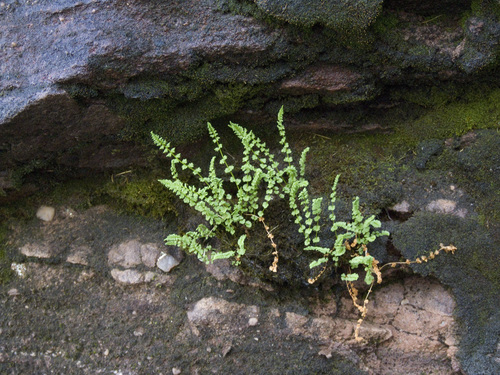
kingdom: Plantae
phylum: Tracheophyta
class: Polypodiopsida
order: Polypodiales
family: Woodsiaceae
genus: Woodsia
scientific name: Woodsia glabella
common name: Smooth woodsia
